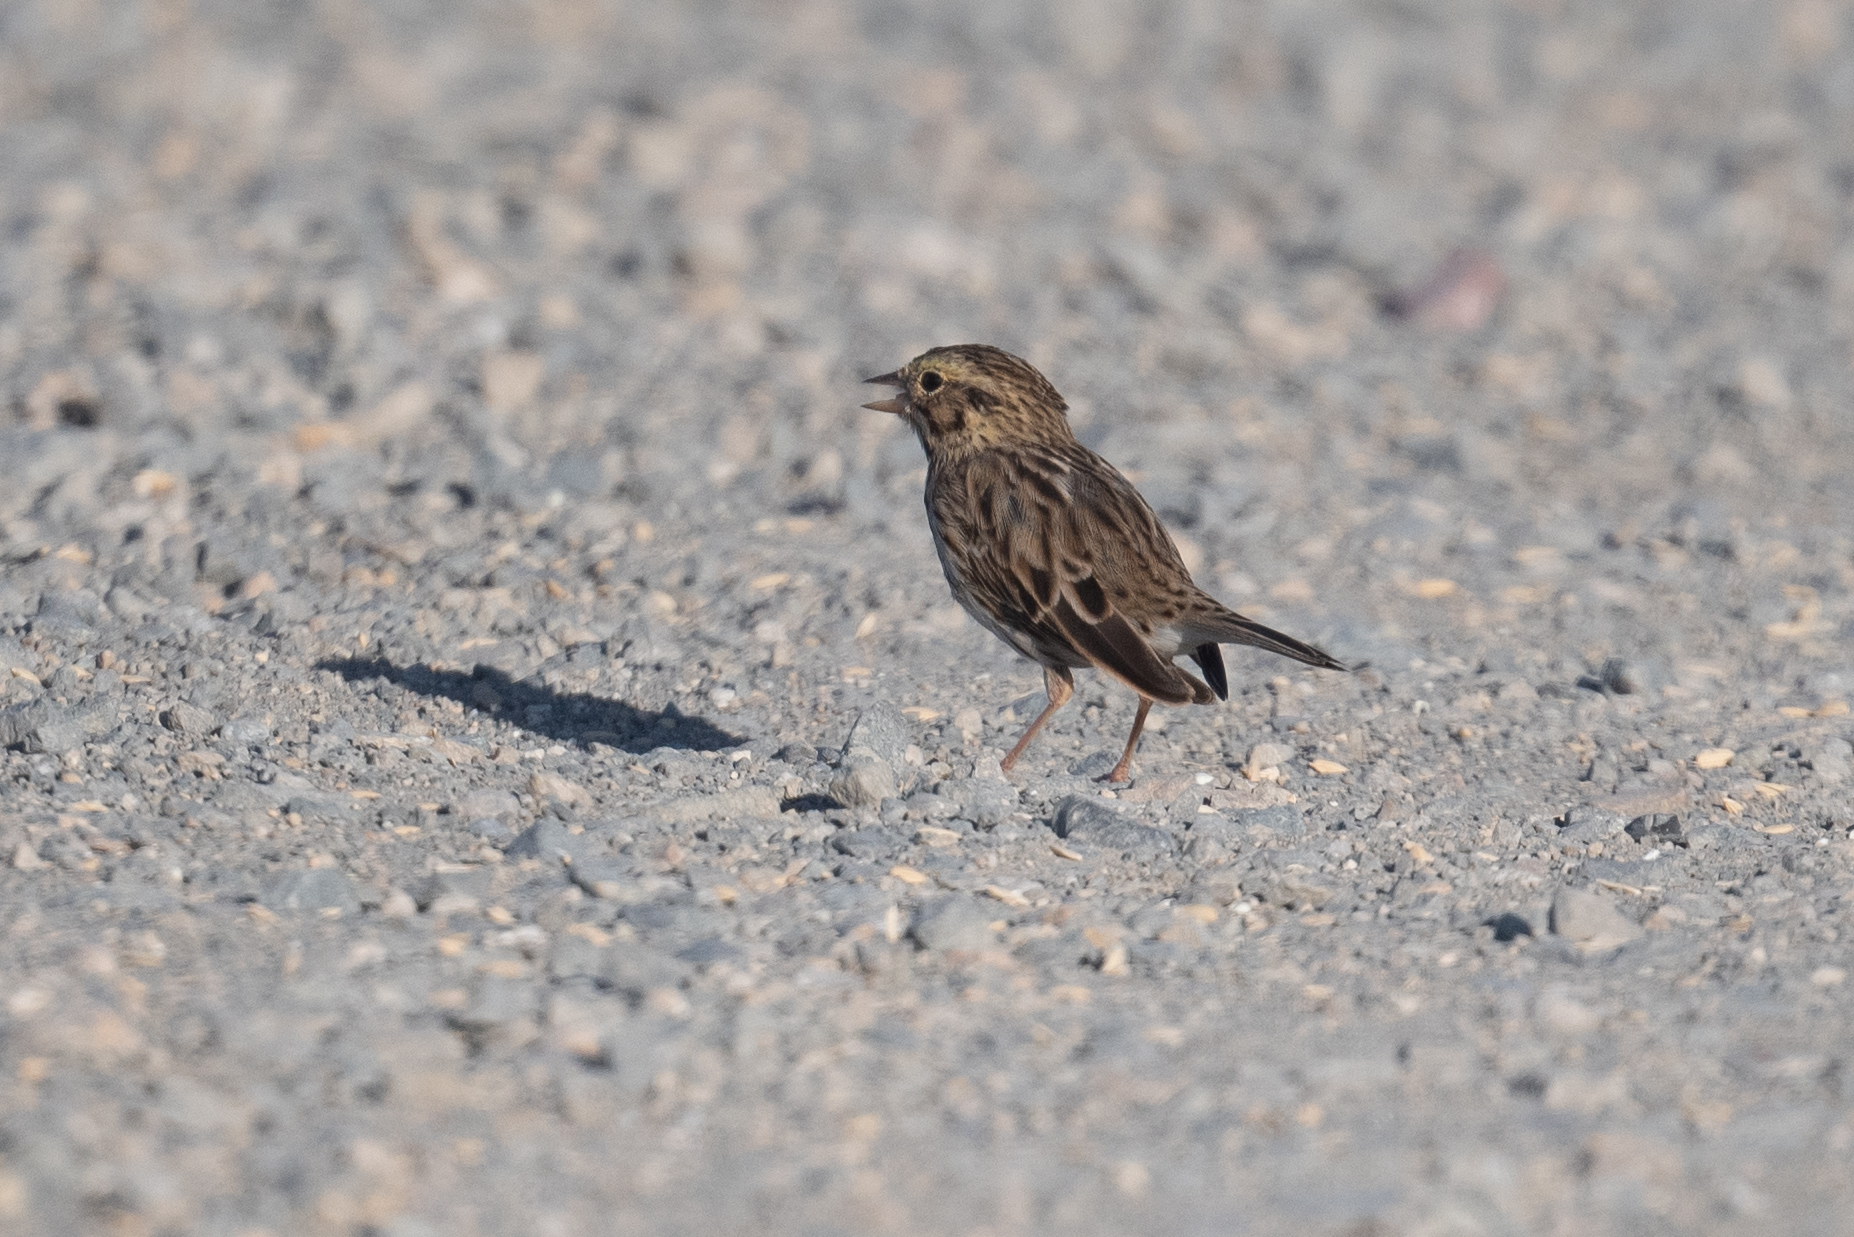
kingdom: Animalia
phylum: Chordata
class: Aves
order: Passeriformes
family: Passerellidae
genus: Passerculus
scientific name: Passerculus sandwichensis
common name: Savannah sparrow
